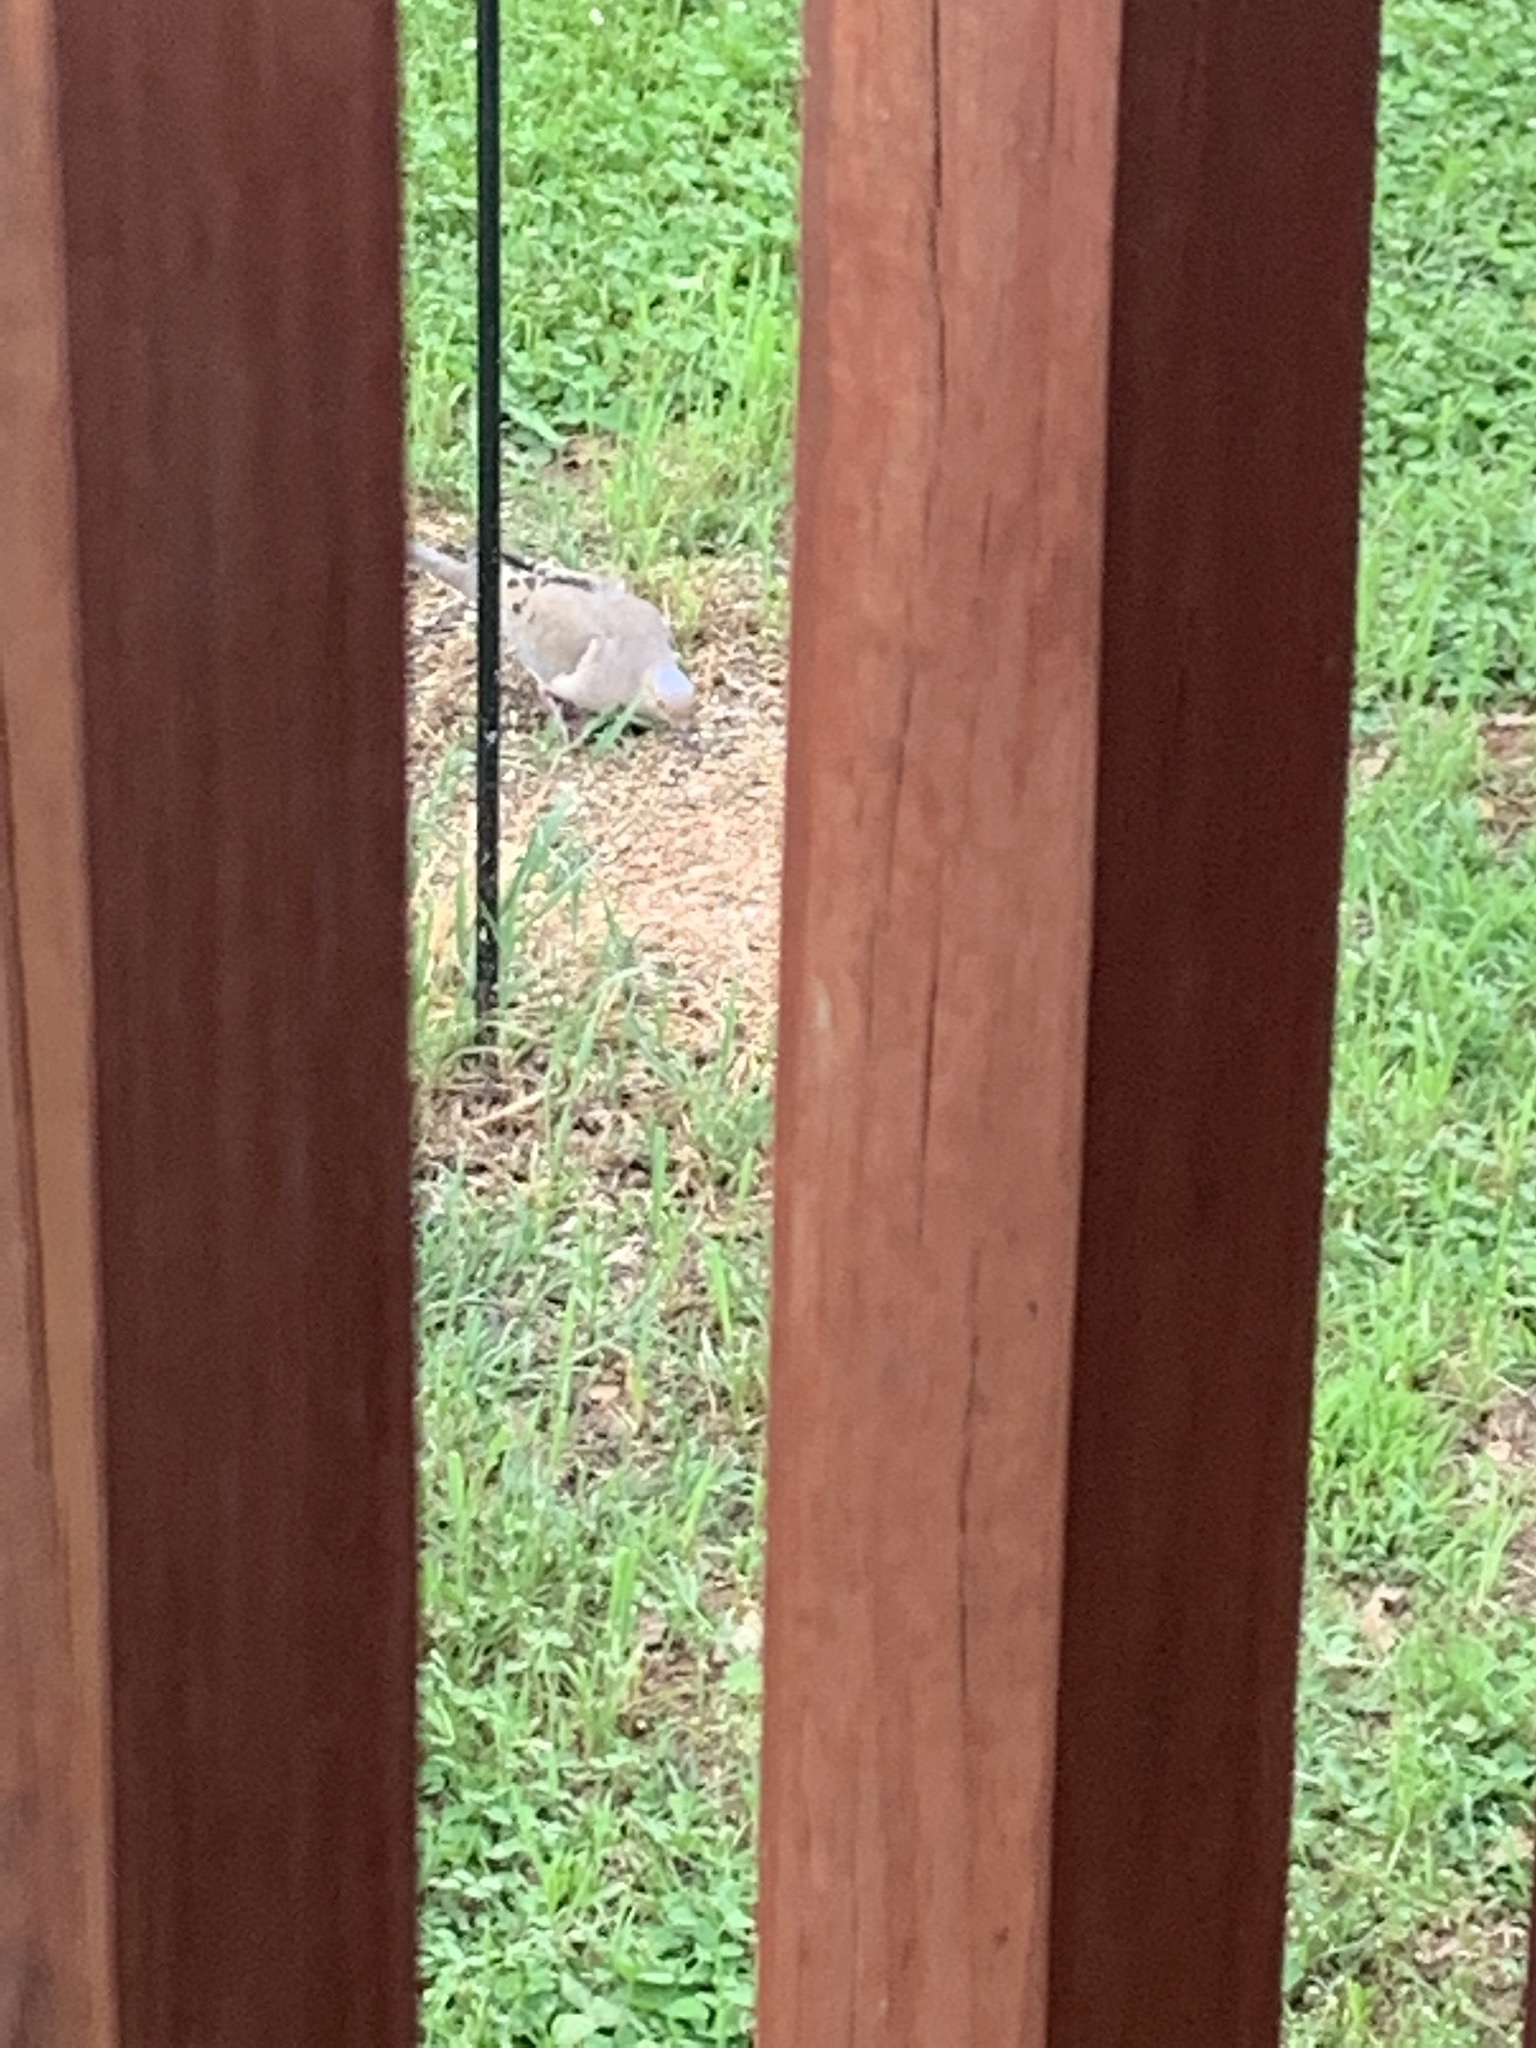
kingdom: Animalia
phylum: Chordata
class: Aves
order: Columbiformes
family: Columbidae
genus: Zenaida
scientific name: Zenaida macroura
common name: Mourning dove
